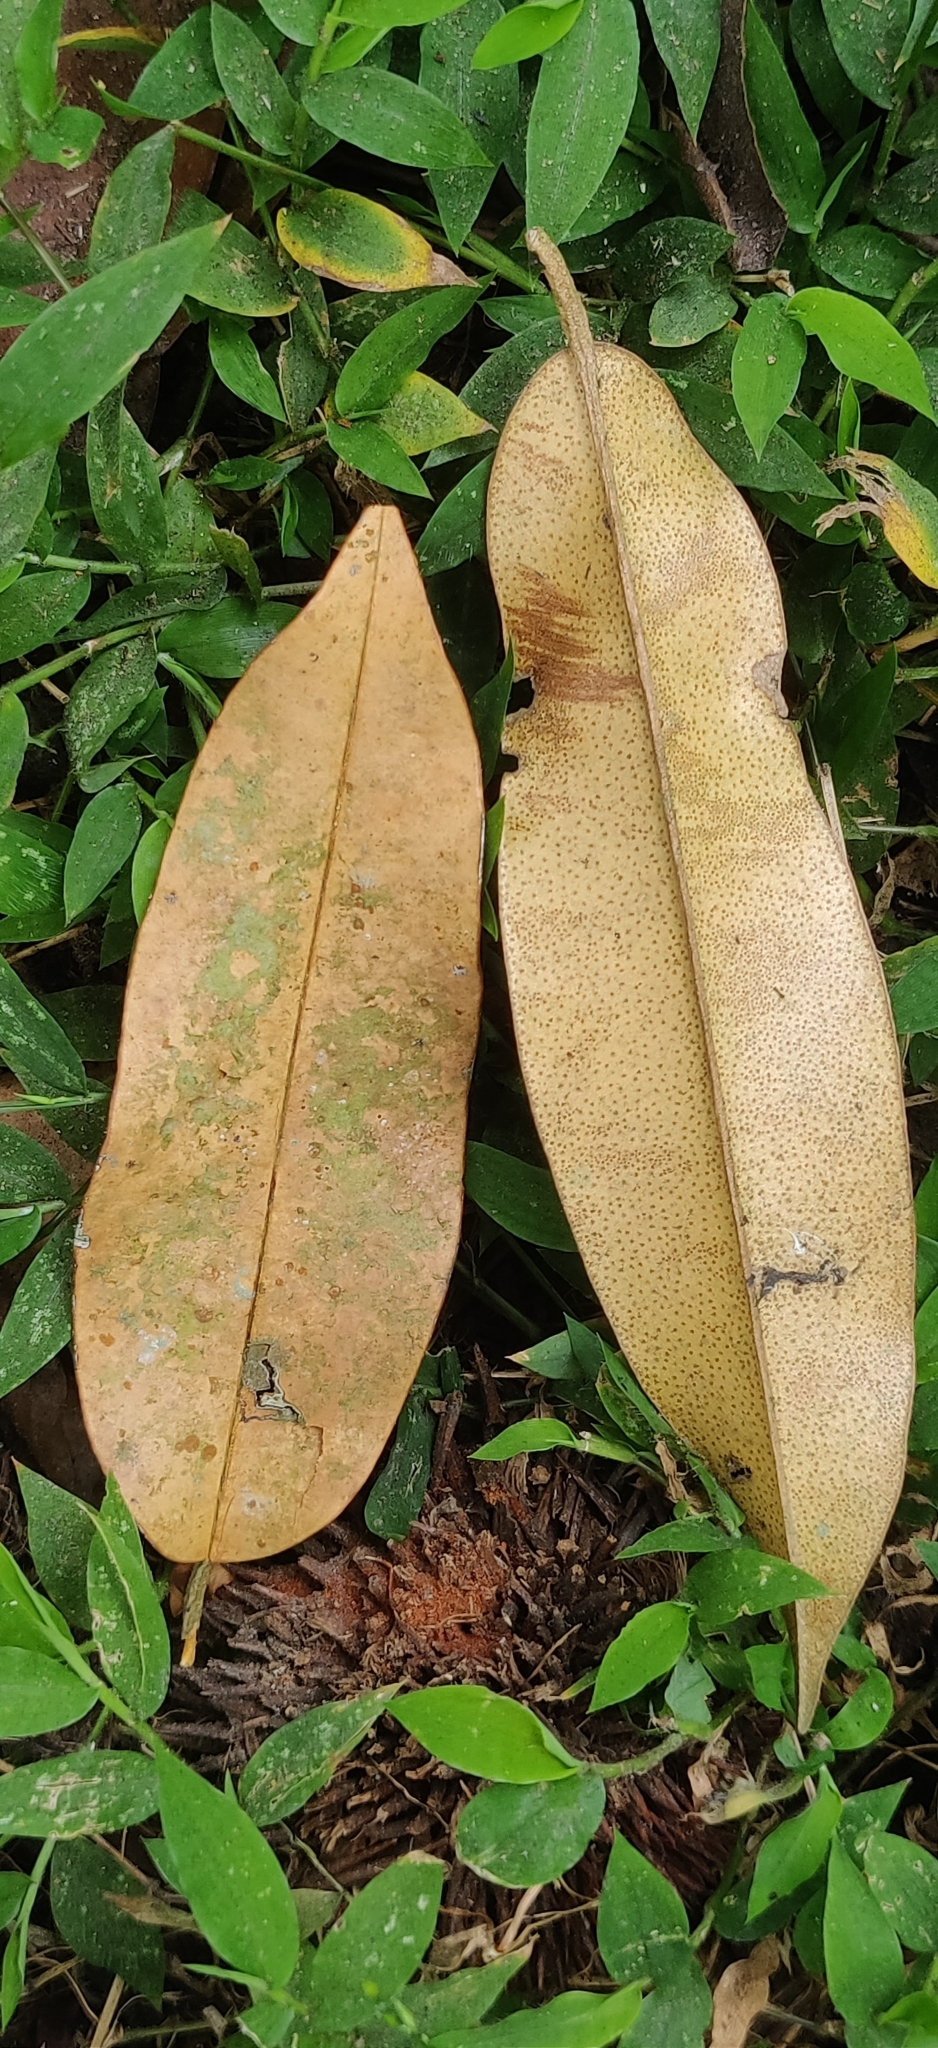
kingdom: Plantae
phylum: Tracheophyta
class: Magnoliopsida
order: Malvales
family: Malvaceae
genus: Cullenia
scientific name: Cullenia exarillata
